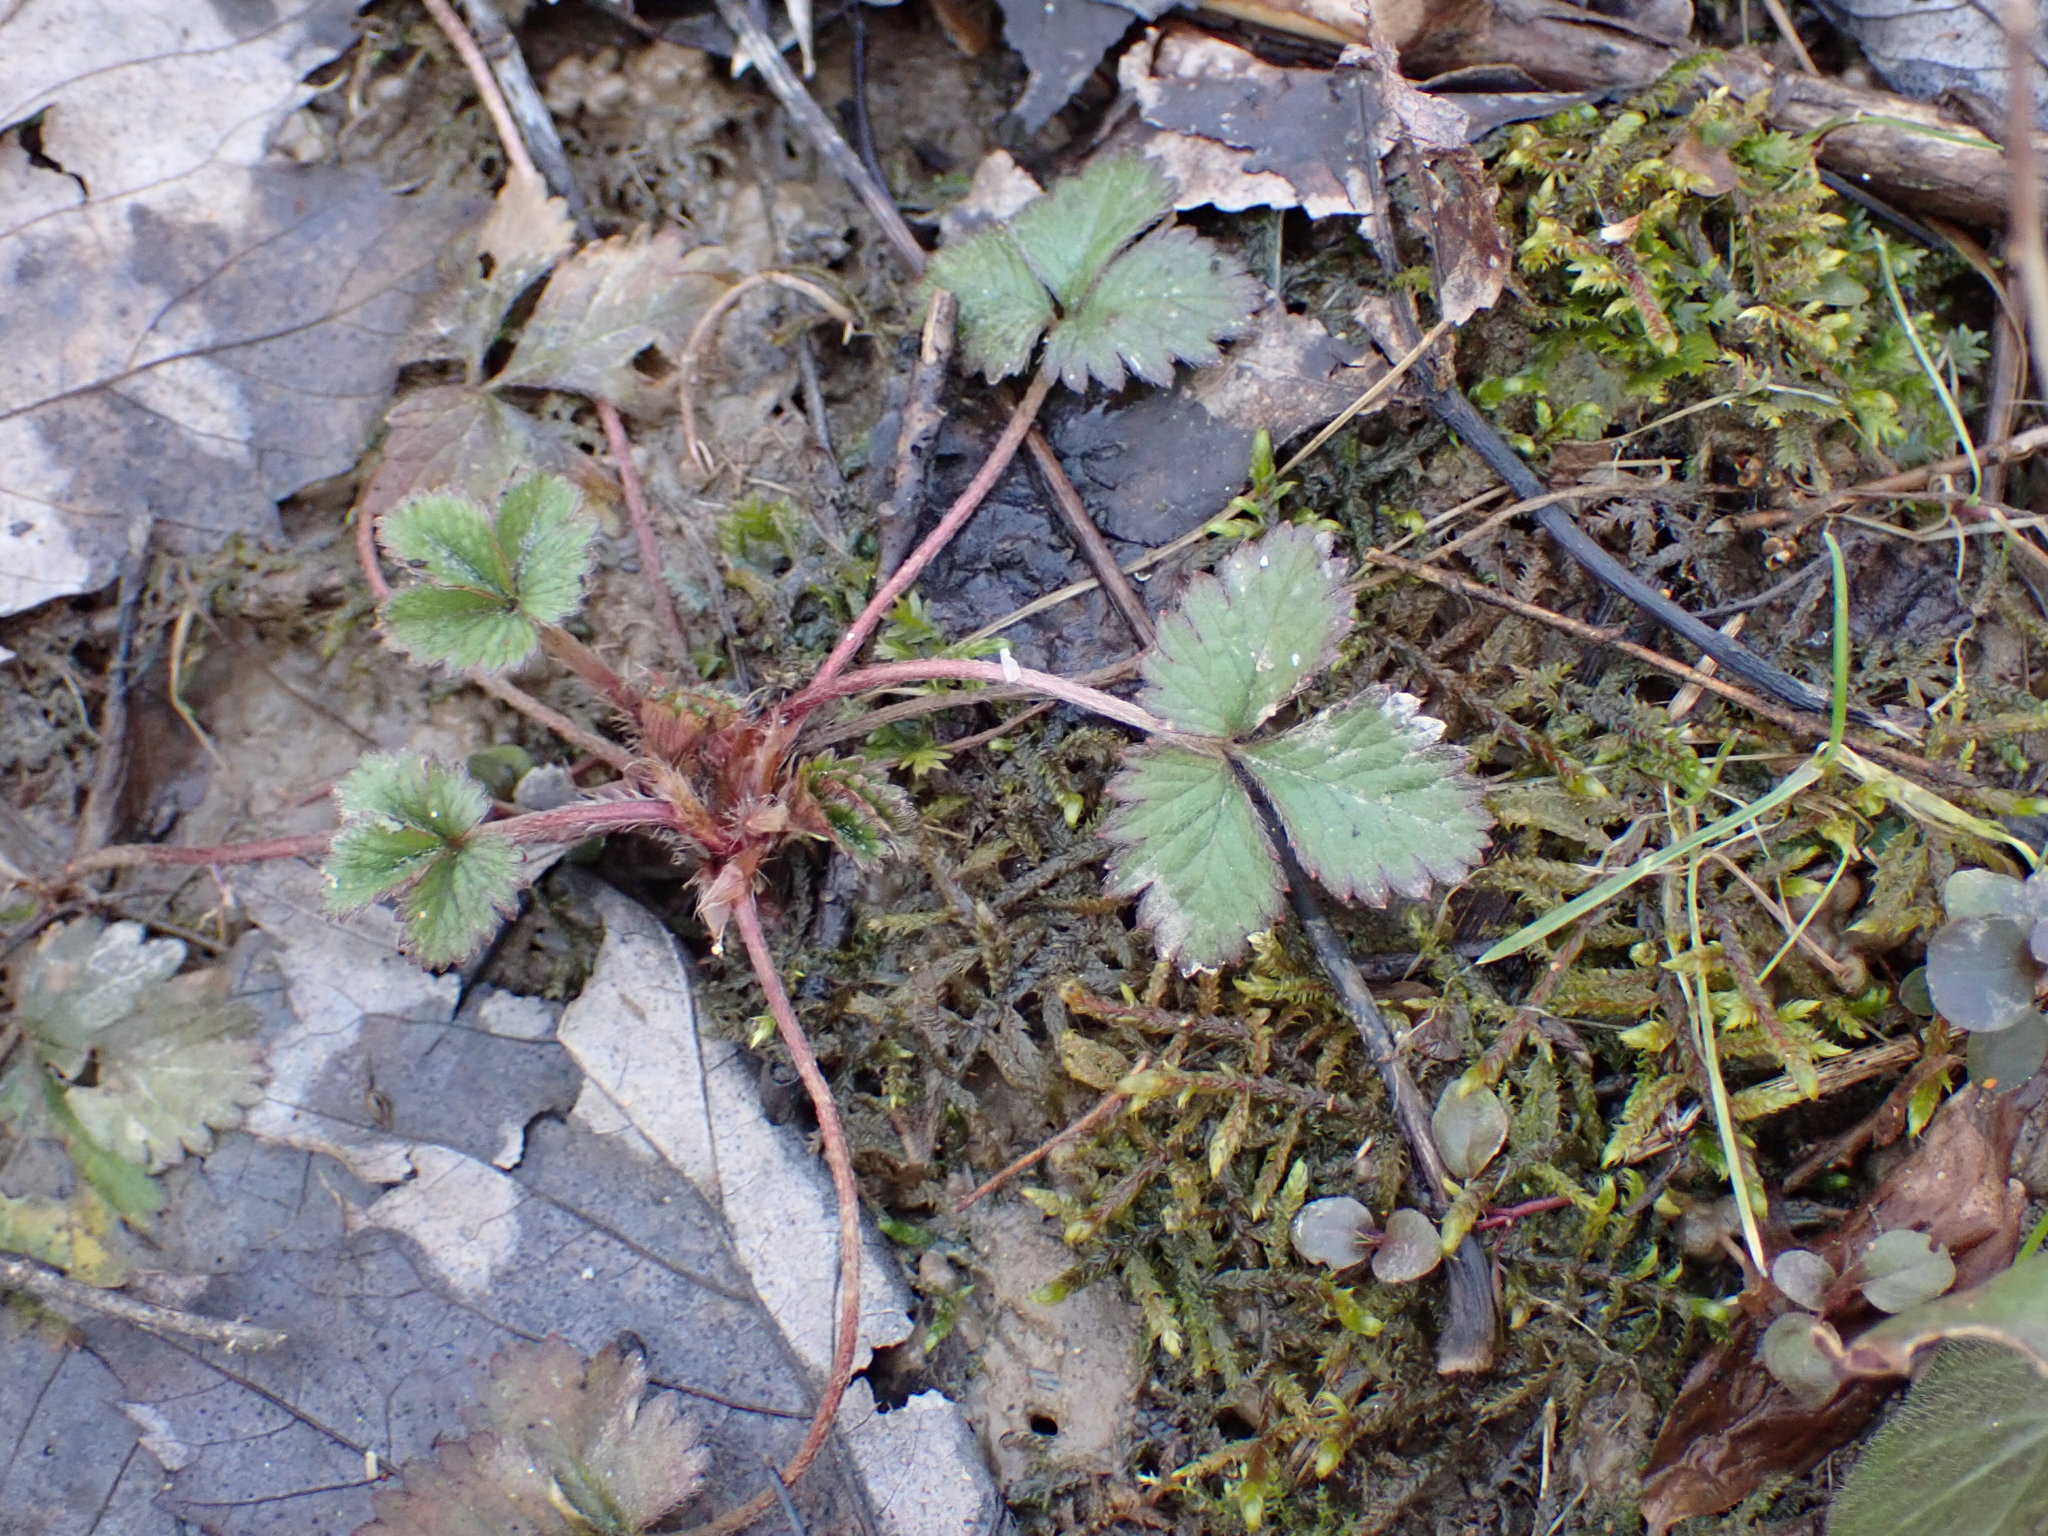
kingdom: Plantae
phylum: Tracheophyta
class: Magnoliopsida
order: Rosales
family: Rosaceae
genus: Potentilla
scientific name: Potentilla indica
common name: Yellow-flowered strawberry
